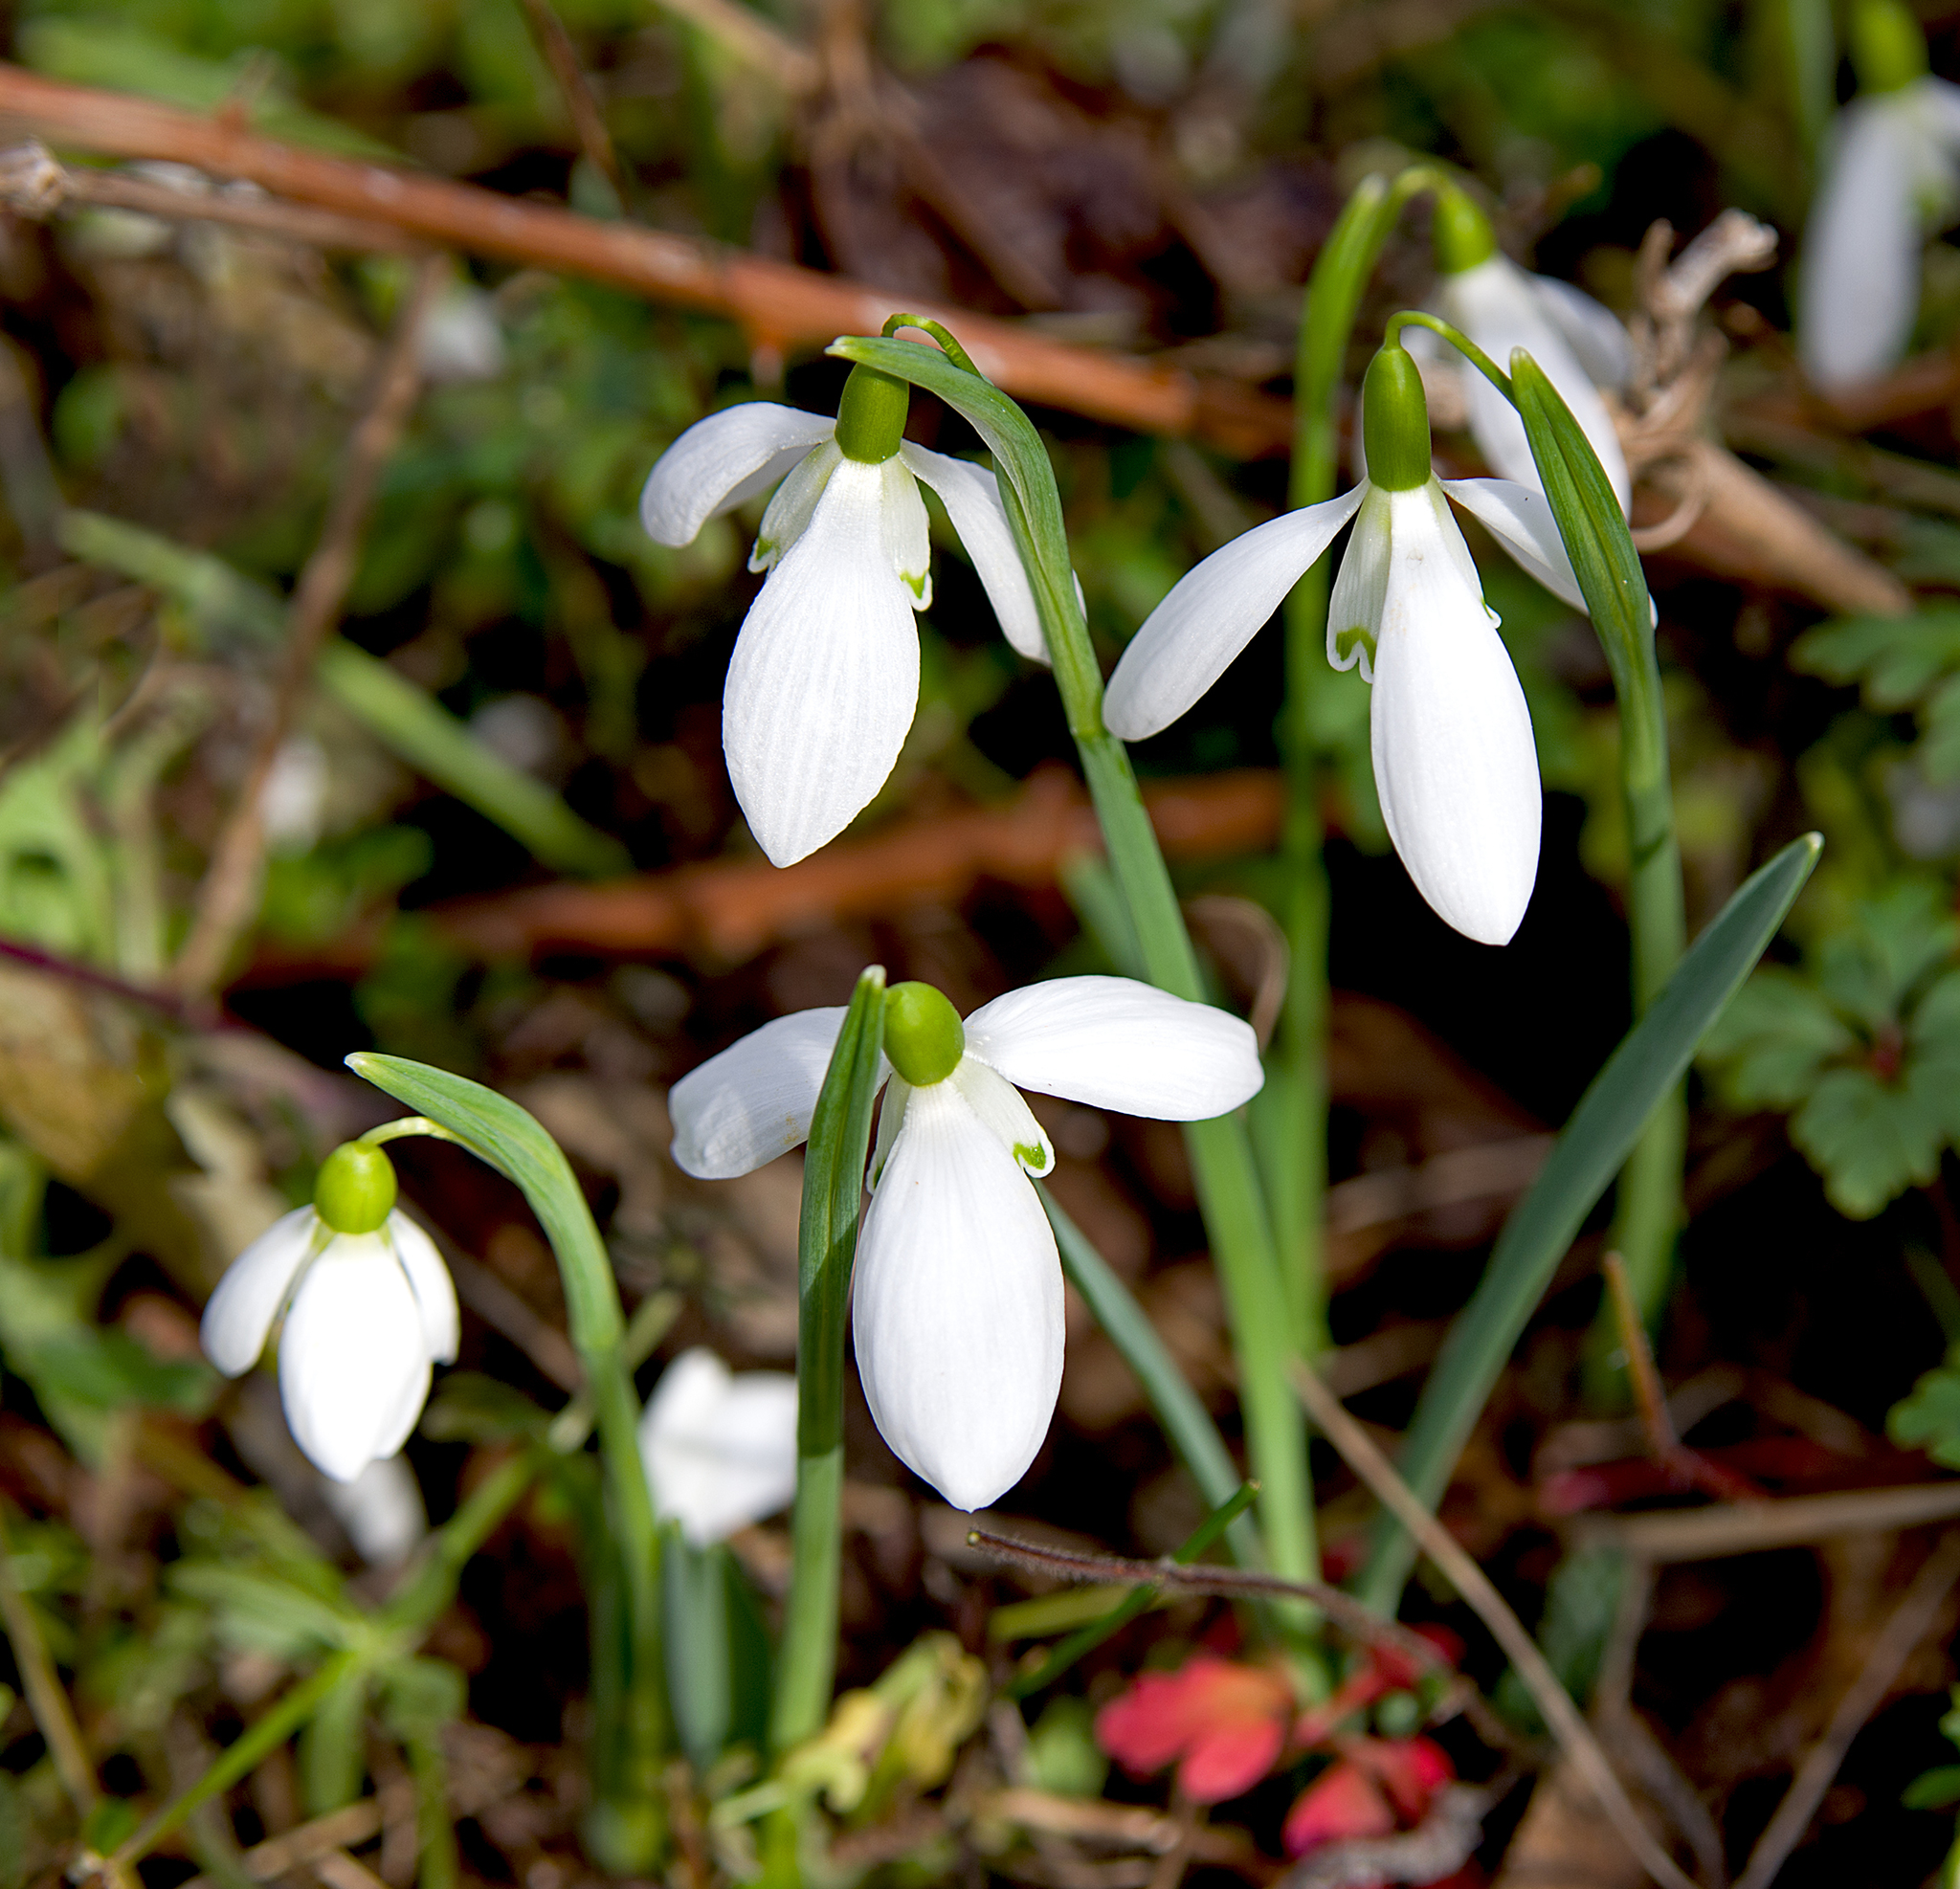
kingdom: Plantae
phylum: Tracheophyta
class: Liliopsida
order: Asparagales
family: Amaryllidaceae
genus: Galanthus
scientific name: Galanthus nivalis
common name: Snowdrop
